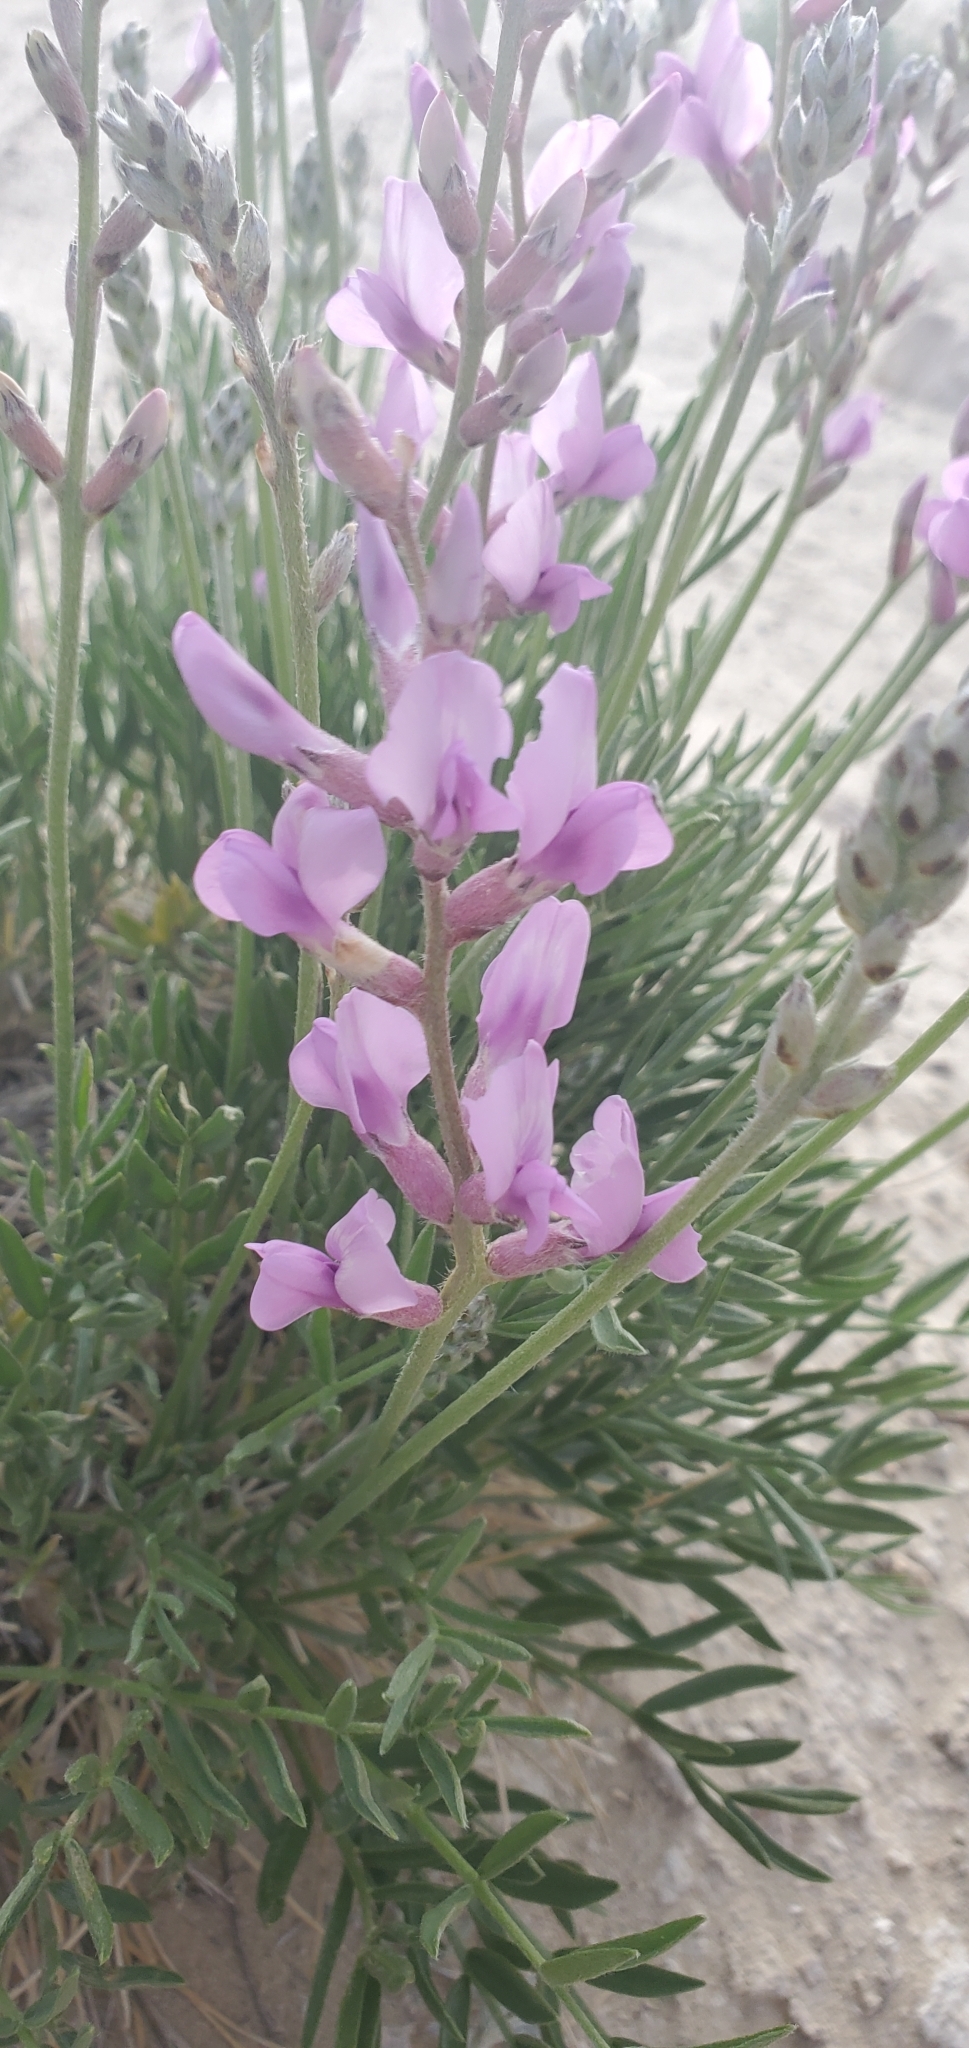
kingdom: Plantae
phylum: Tracheophyta
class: Magnoliopsida
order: Fabales
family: Fabaceae
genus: Oxytropis
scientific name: Oxytropis lambertii
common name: Purple locoweed
